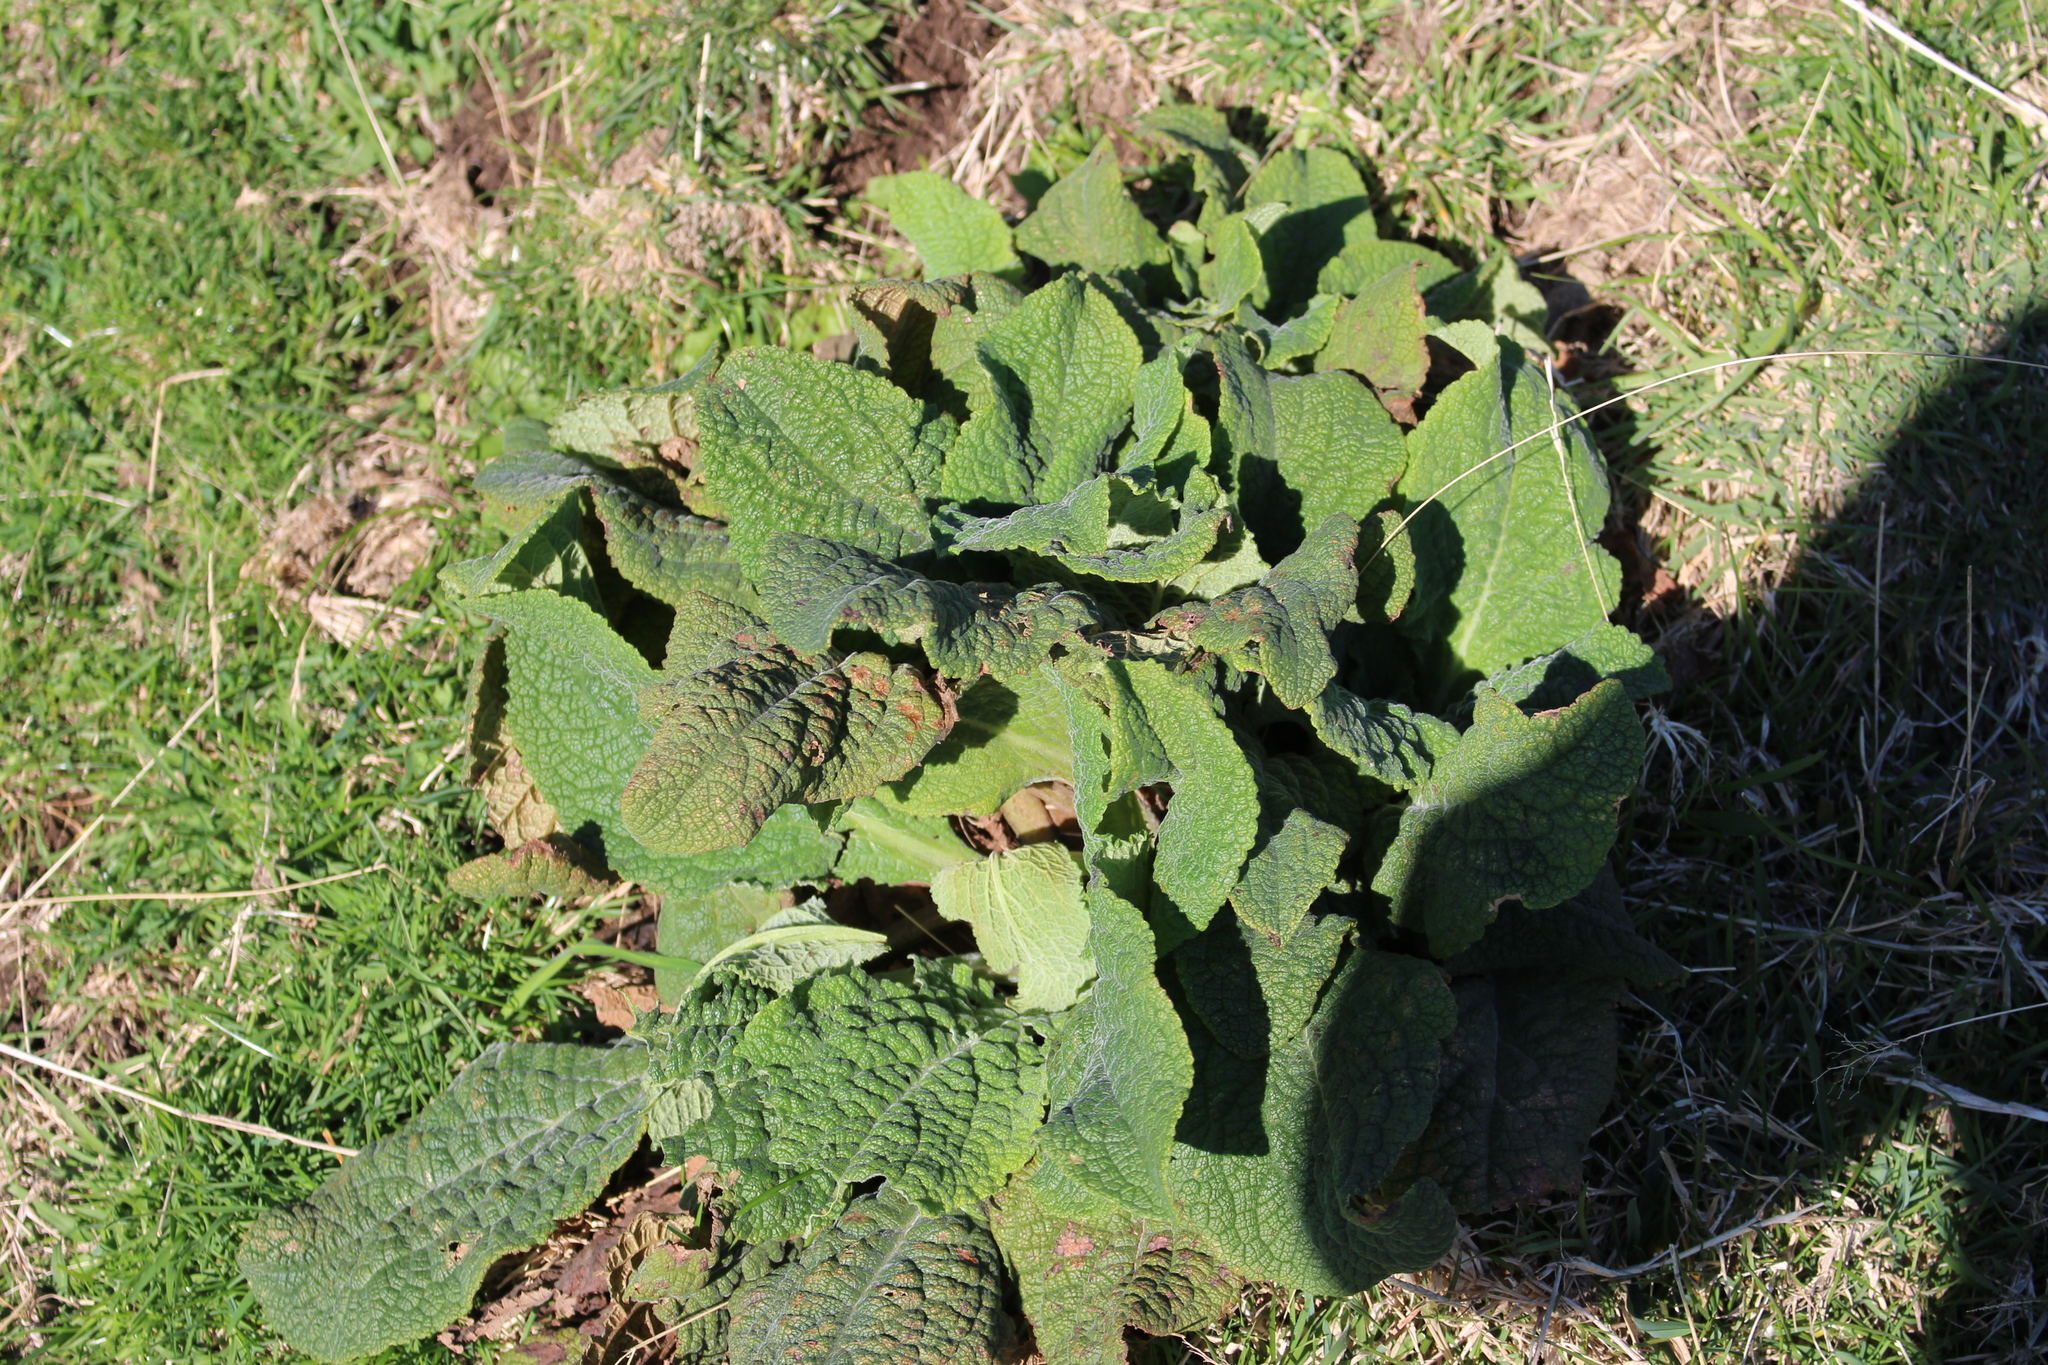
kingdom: Plantae
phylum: Tracheophyta
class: Magnoliopsida
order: Lamiales
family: Scrophulariaceae
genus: Verbascum
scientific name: Verbascum thapsus
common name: Common mullein
